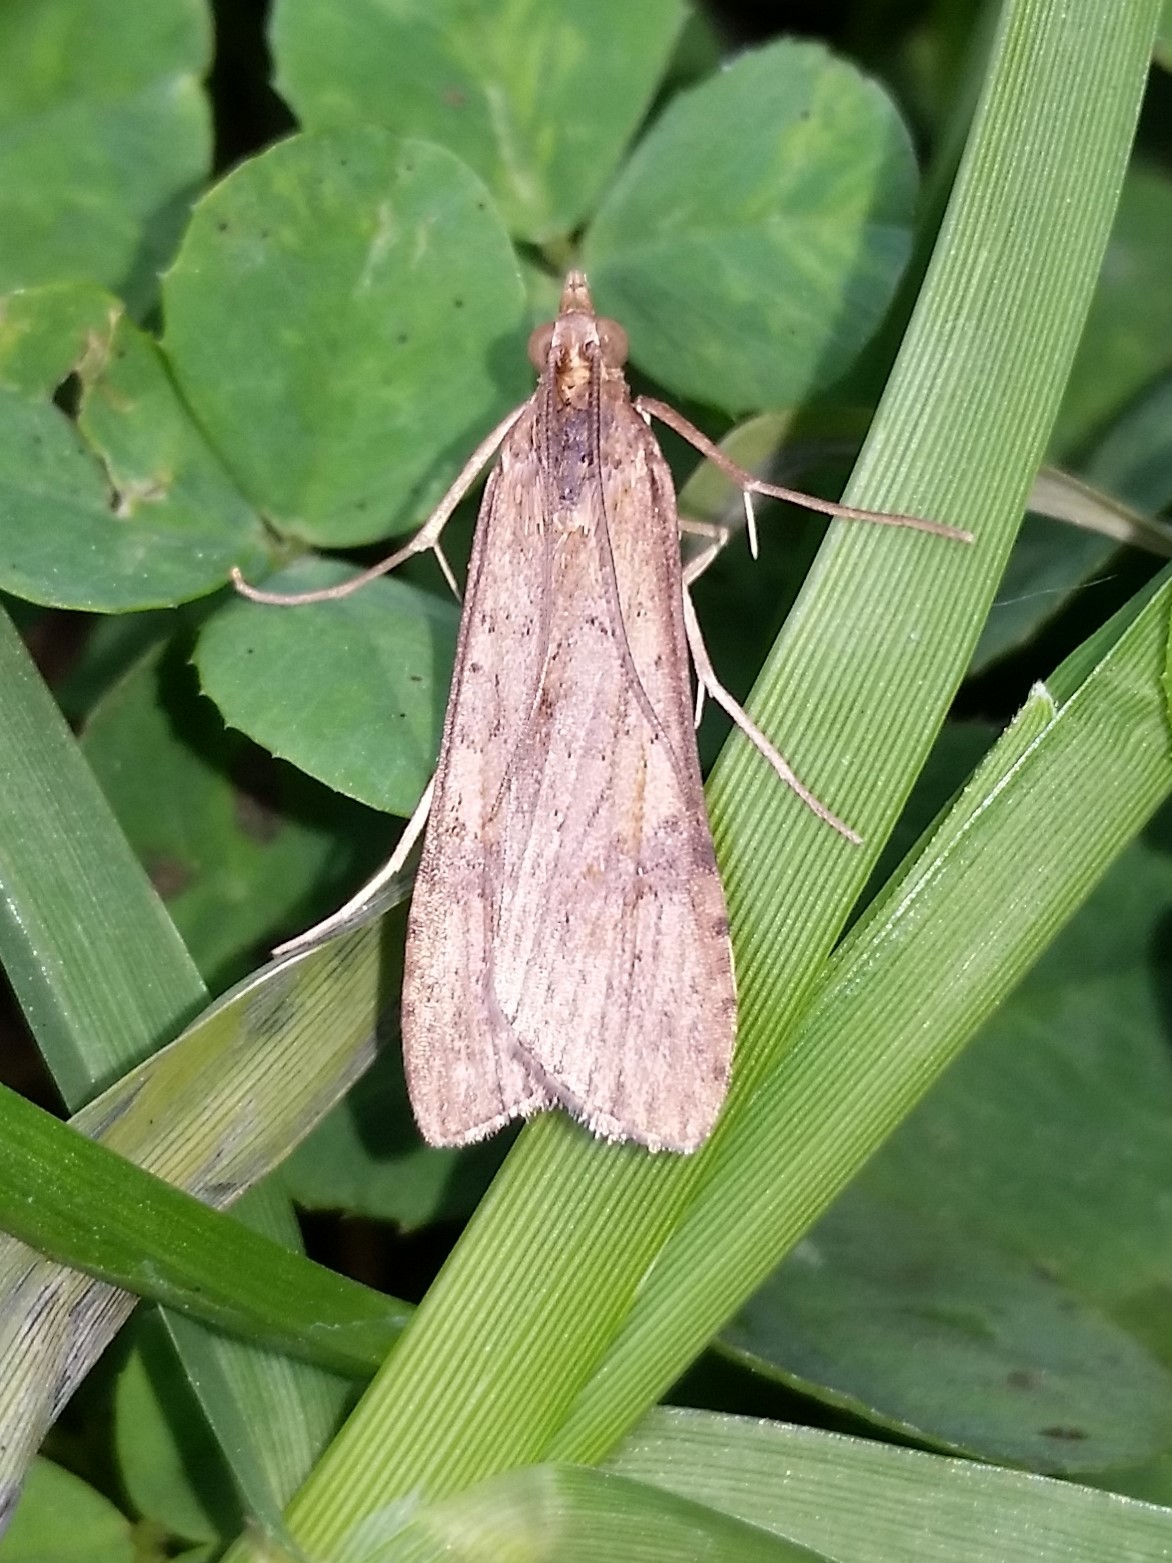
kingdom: Animalia
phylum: Arthropoda
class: Insecta
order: Lepidoptera
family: Crambidae
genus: Nomophila
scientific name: Nomophila nearctica
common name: American rush veneer
